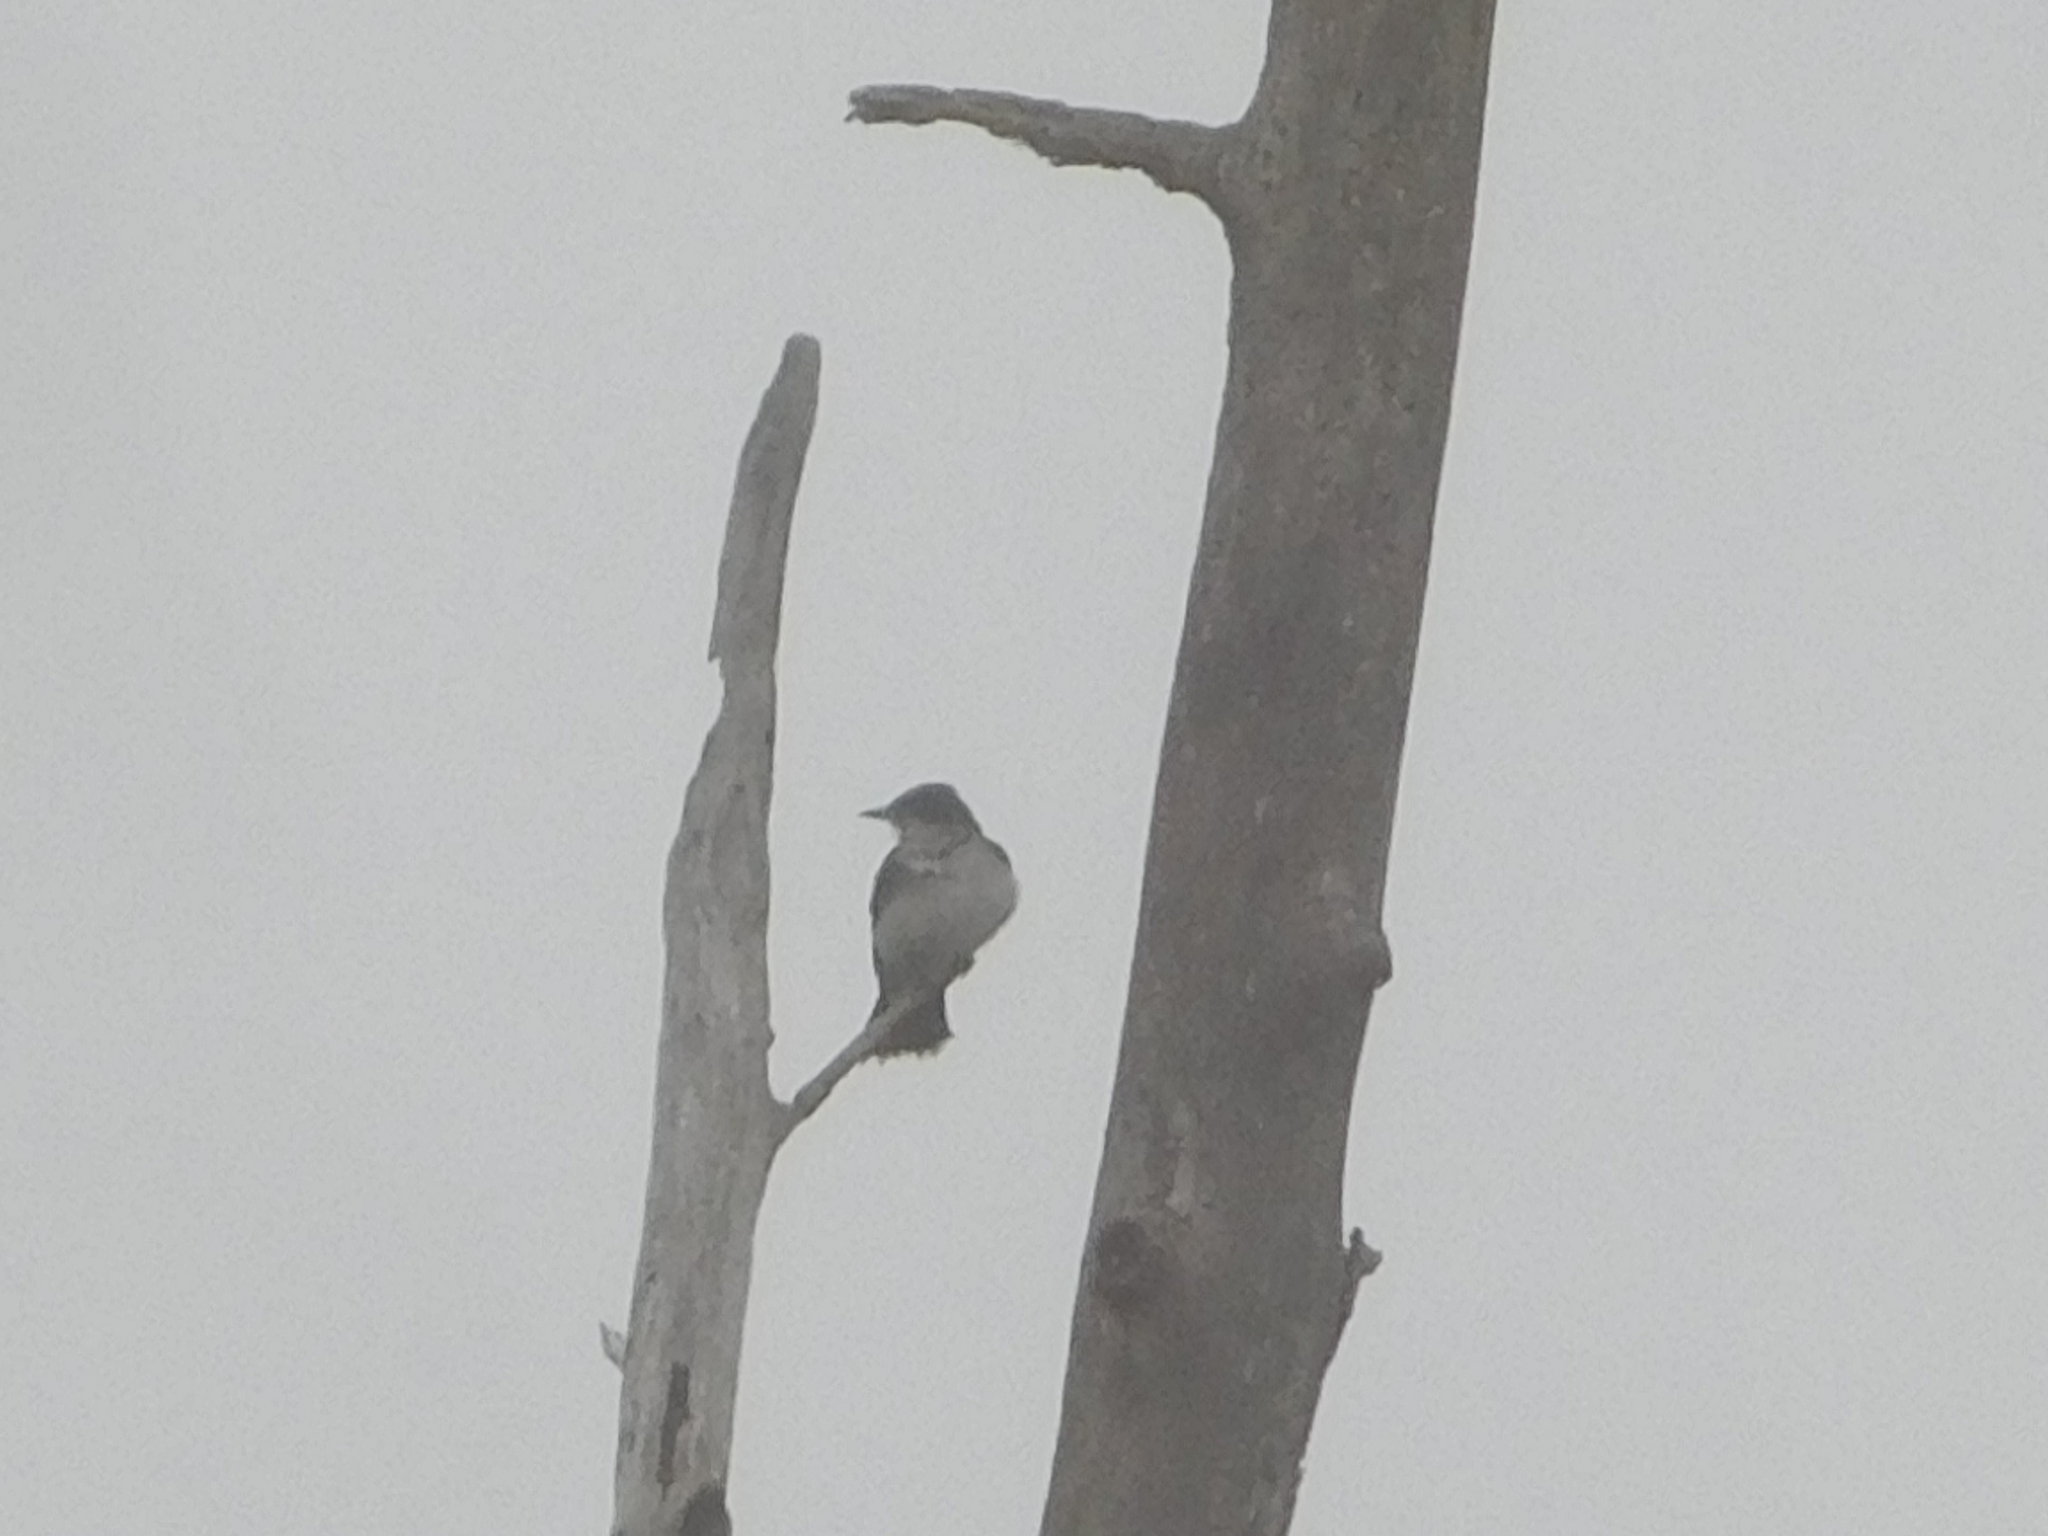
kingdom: Animalia
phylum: Chordata
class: Aves
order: Passeriformes
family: Tyrannidae
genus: Tyrannus
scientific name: Tyrannus tyrannus
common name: Eastern kingbird
